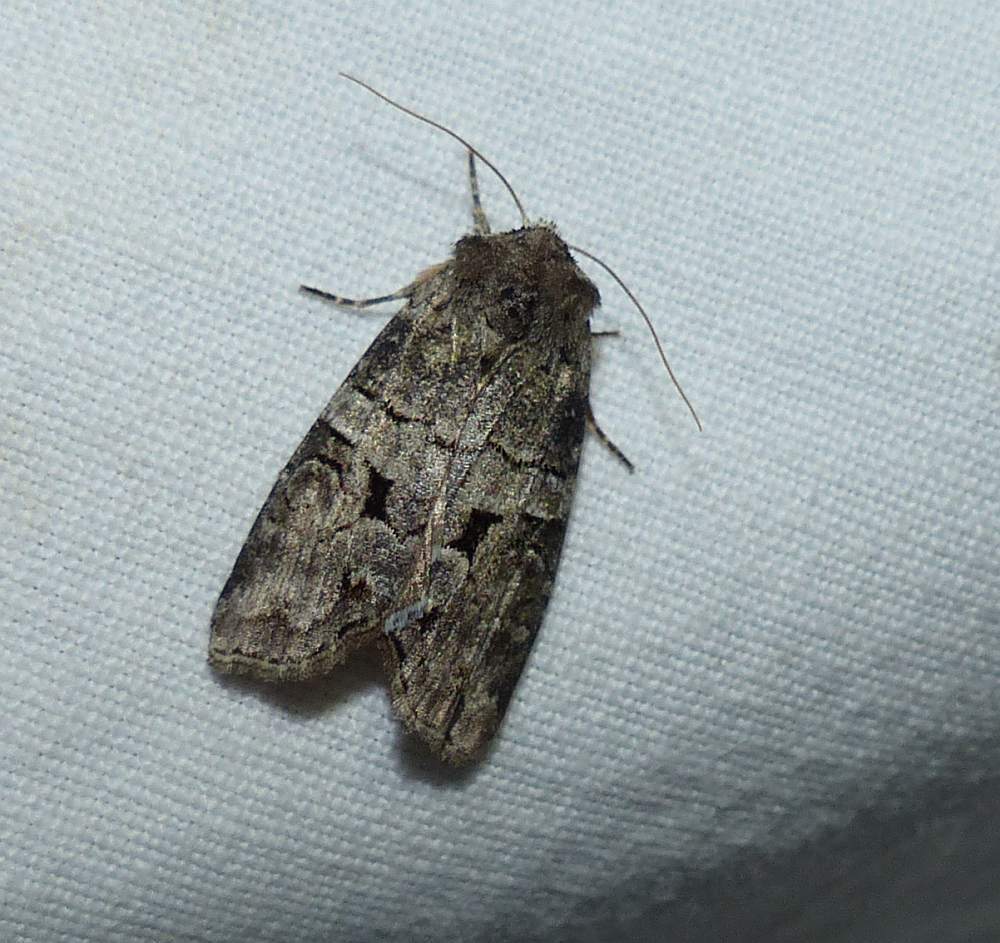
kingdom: Animalia
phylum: Arthropoda
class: Insecta
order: Lepidoptera
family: Noctuidae
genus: Egira
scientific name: Egira alternans
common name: Alternate woodling
